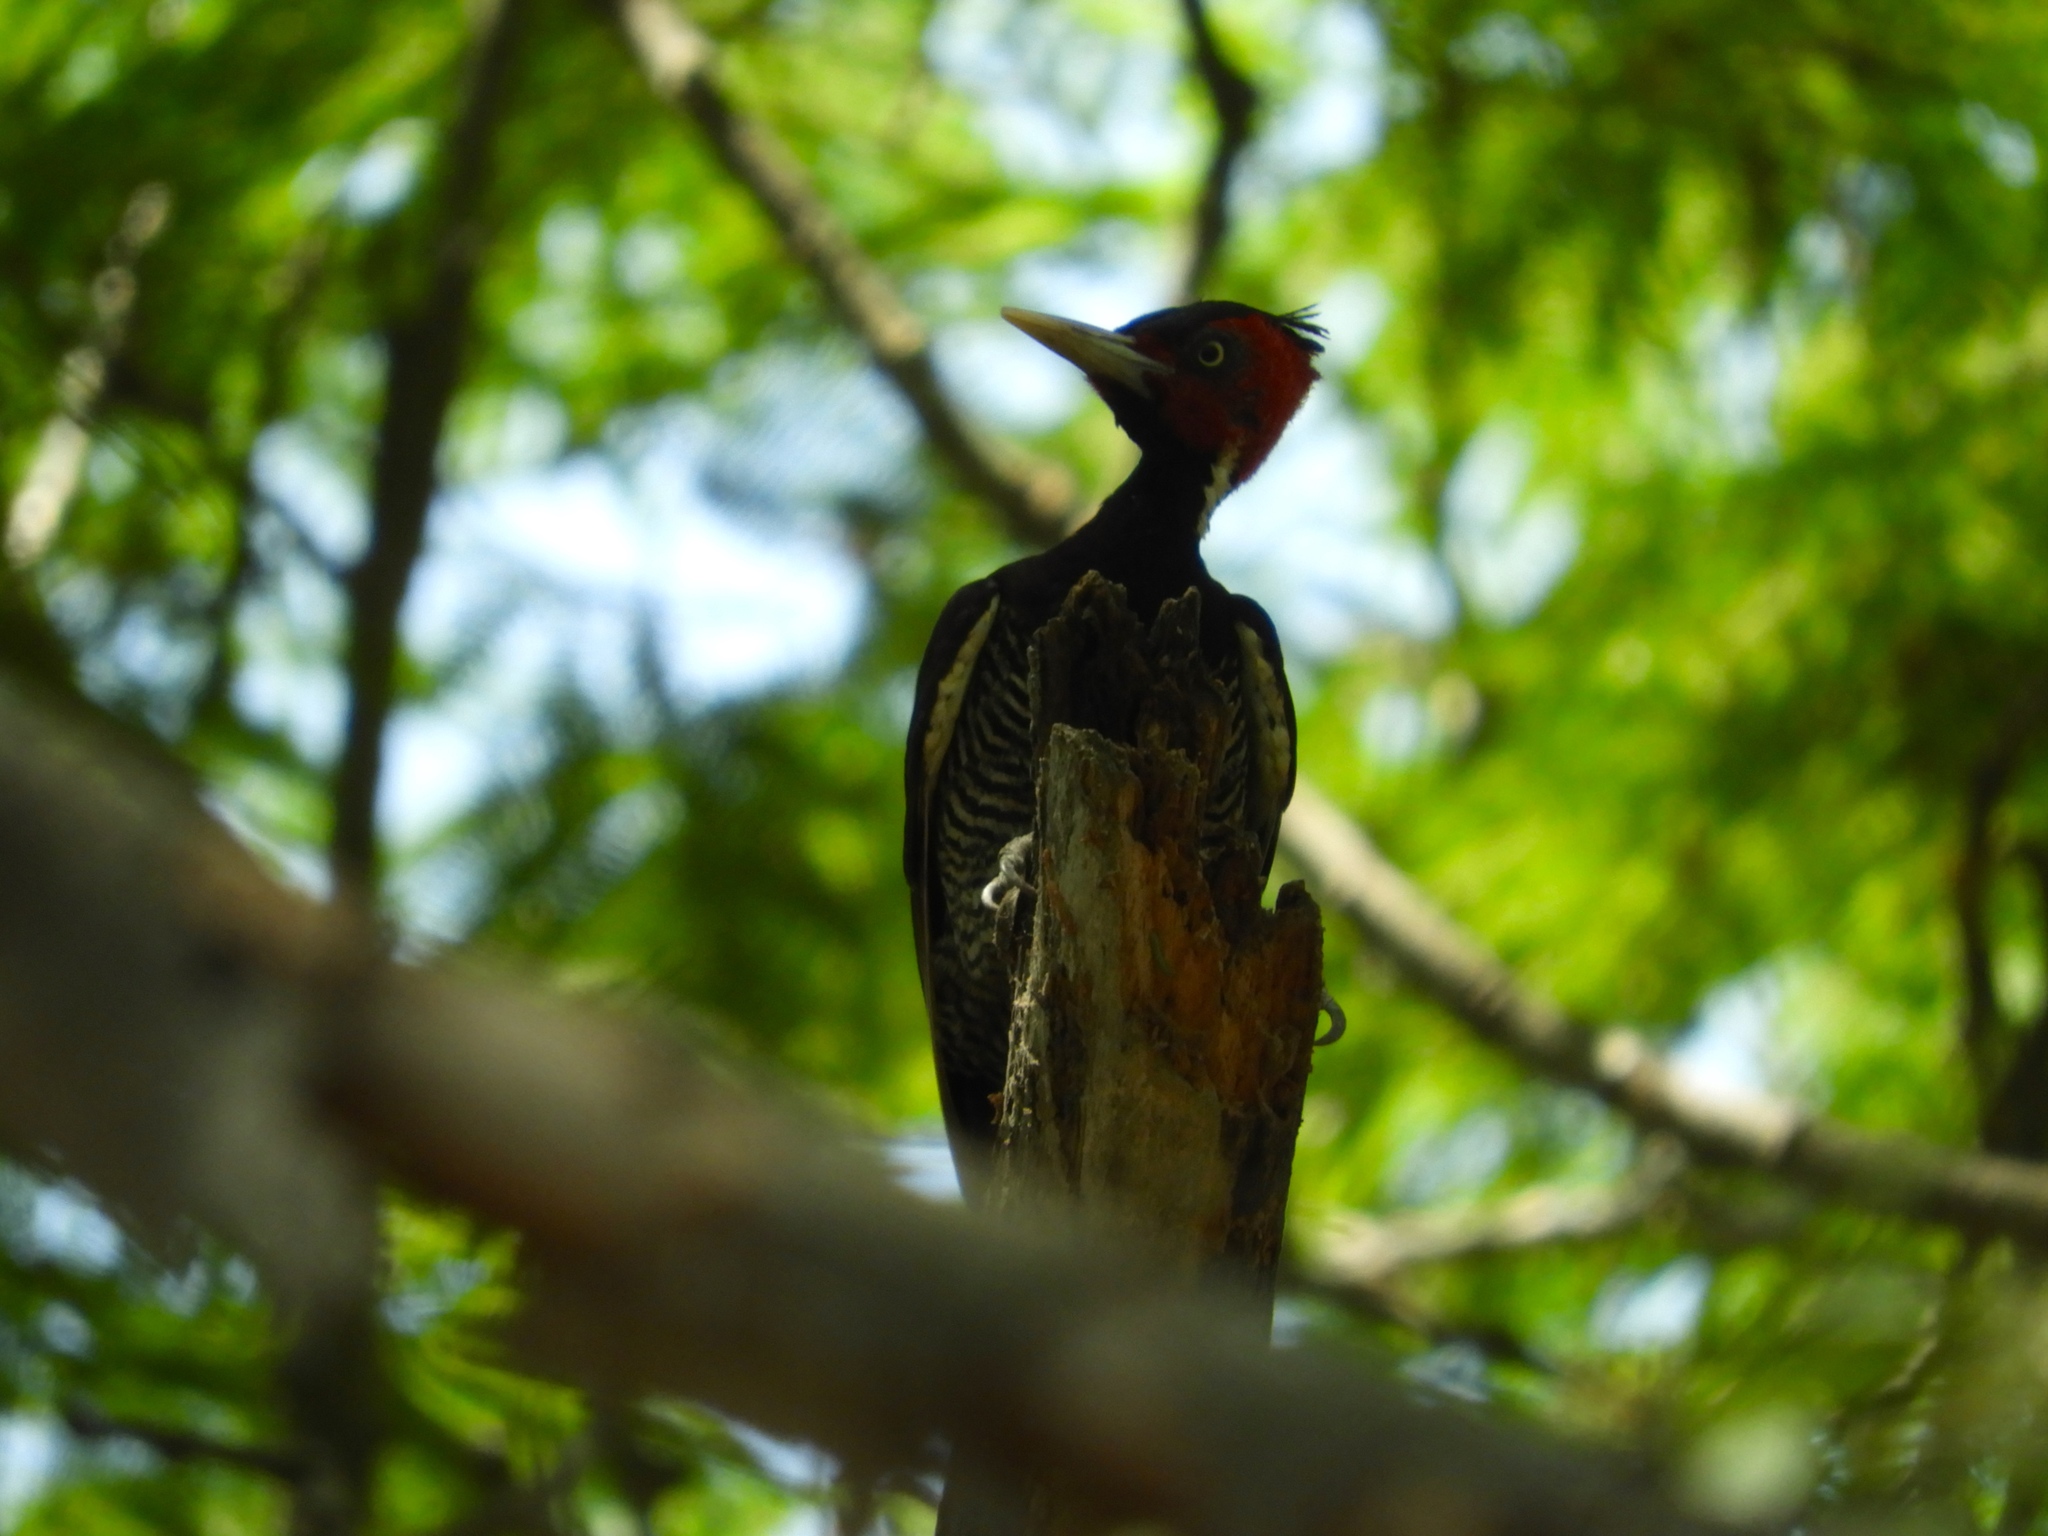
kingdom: Animalia
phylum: Chordata
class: Aves
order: Piciformes
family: Picidae
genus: Campephilus
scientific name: Campephilus guatemalensis
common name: Pale-billed woodpecker
